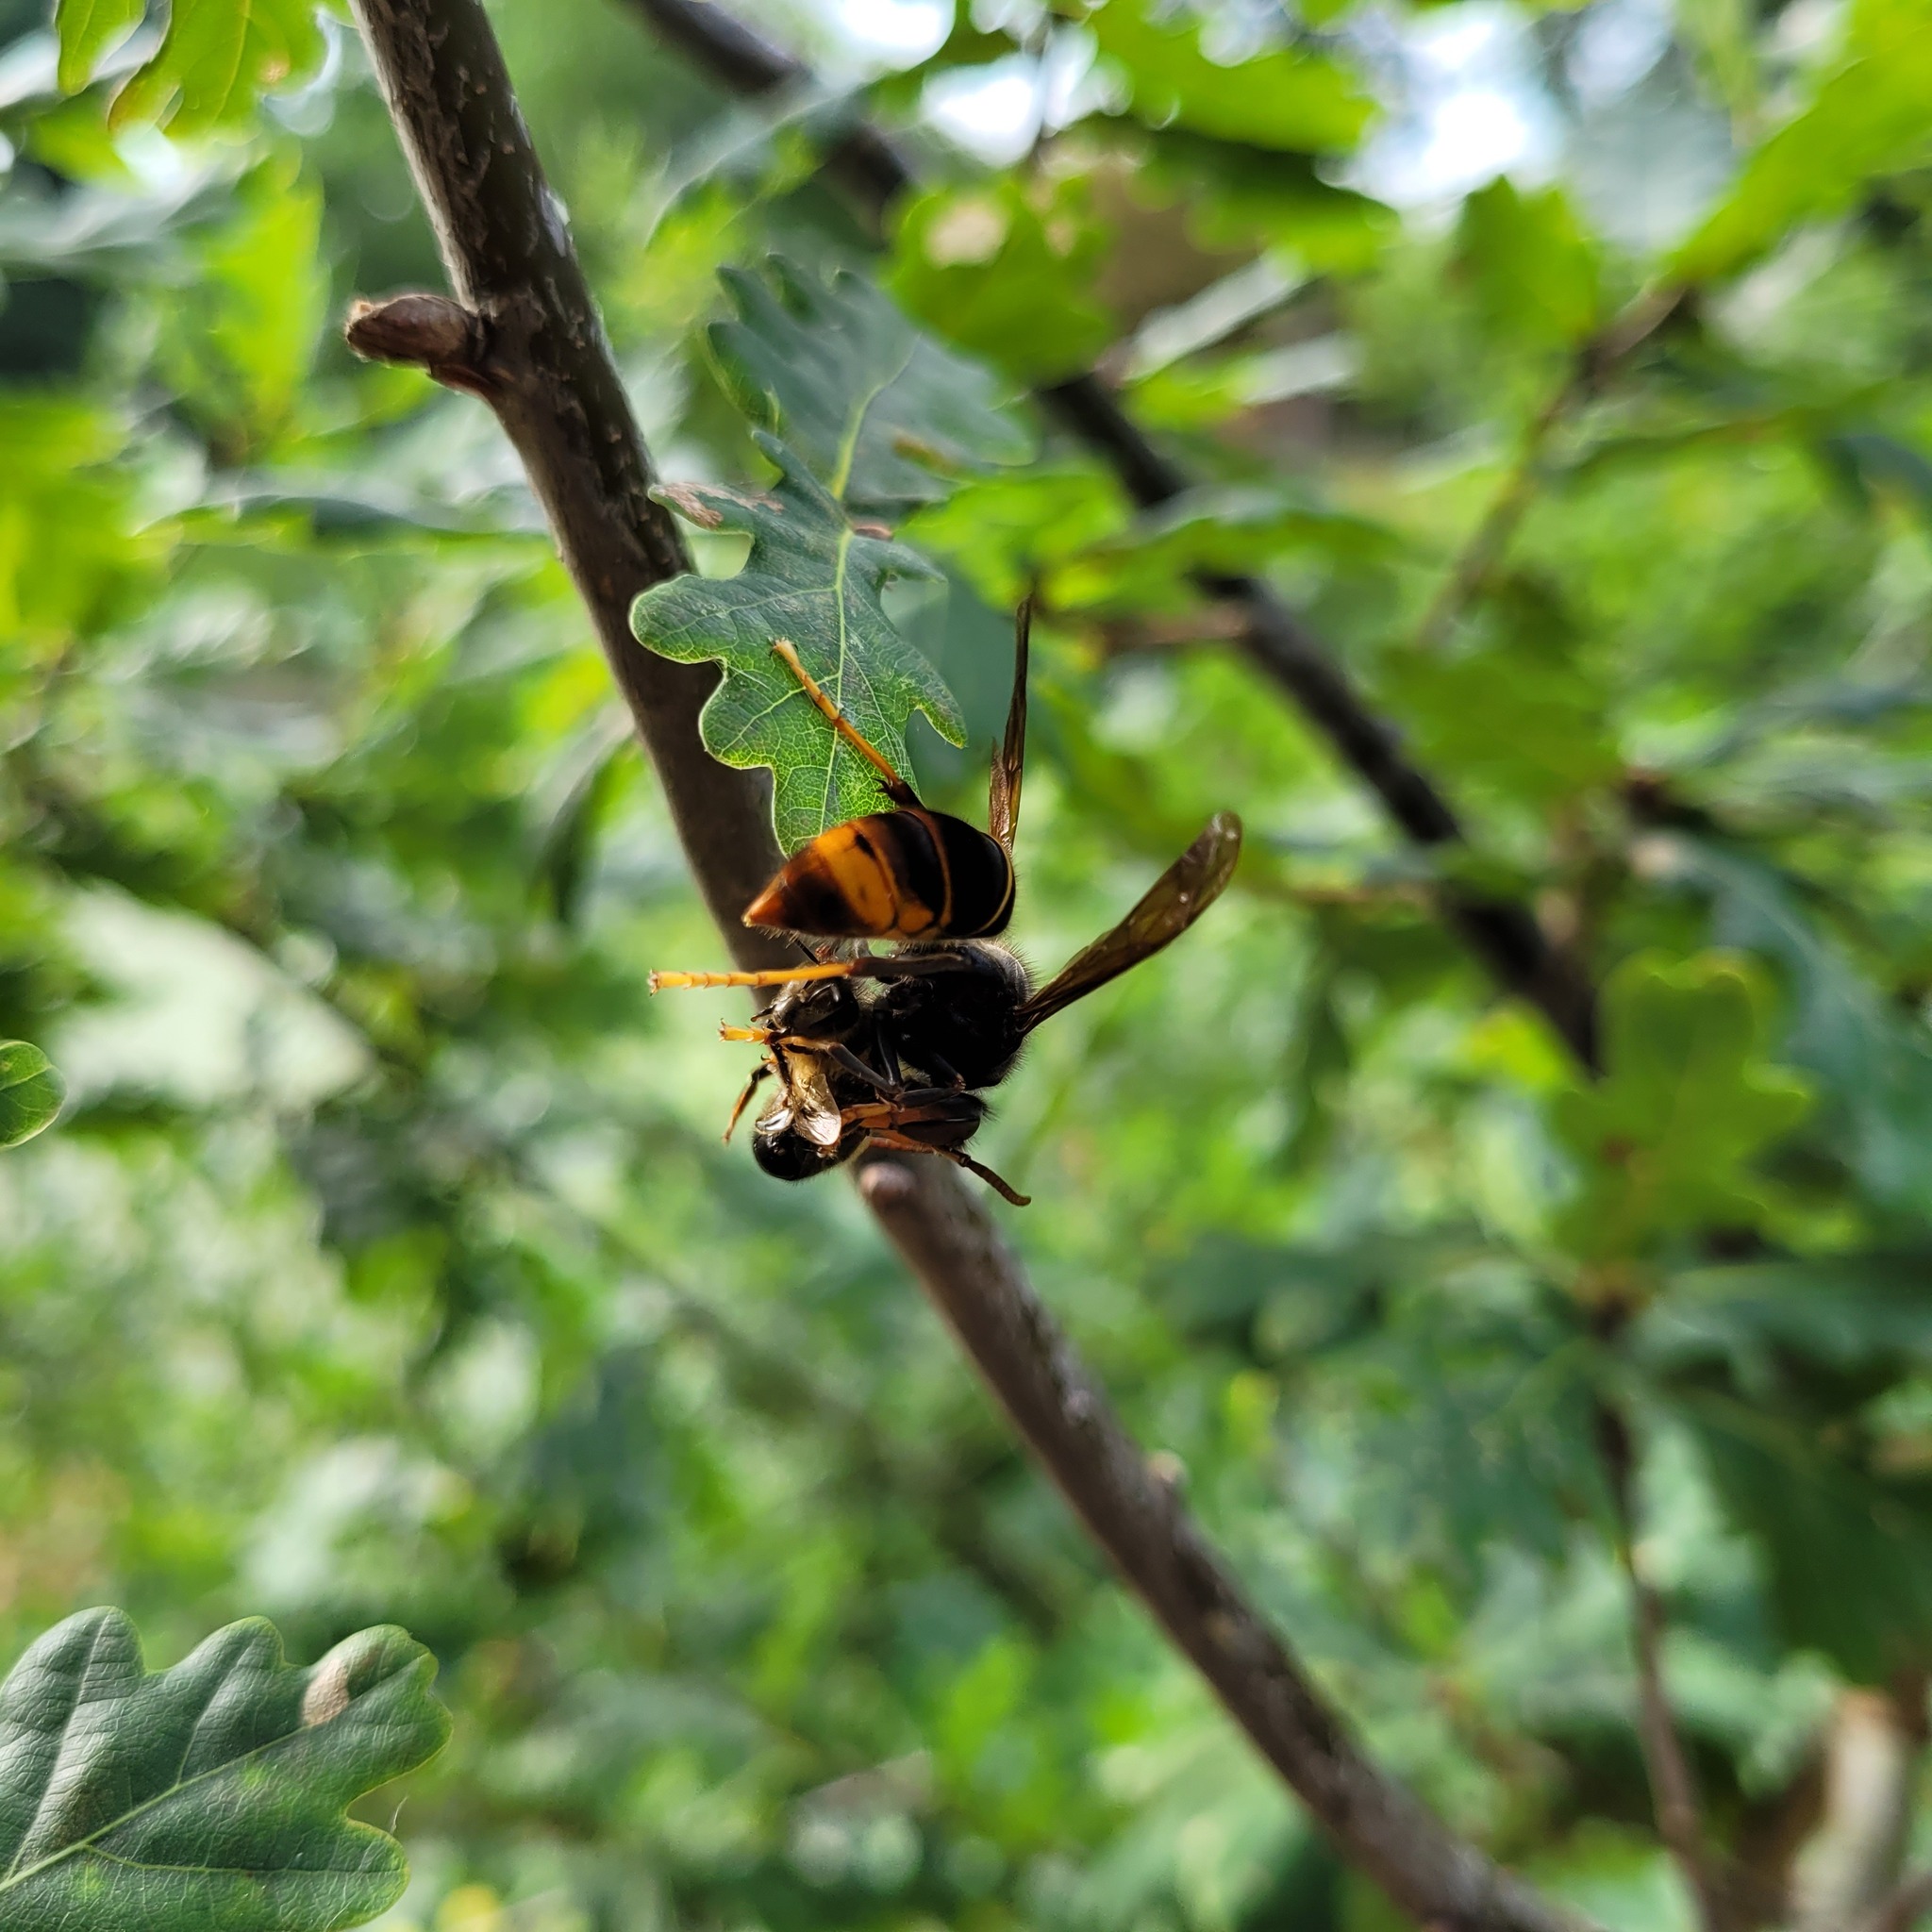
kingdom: Animalia
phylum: Arthropoda
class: Insecta
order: Hymenoptera
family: Vespidae
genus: Vespa
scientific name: Vespa velutina
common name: Asian hornet
